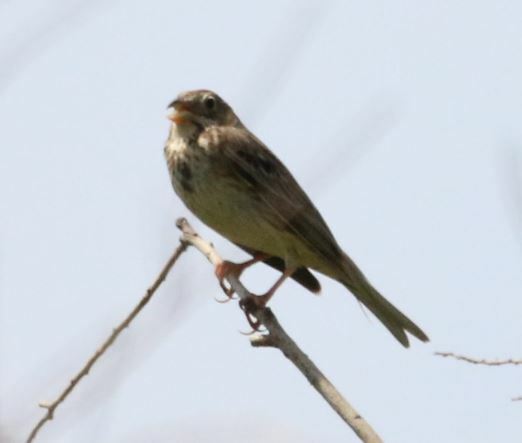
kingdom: Animalia
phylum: Chordata
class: Aves
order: Passeriformes
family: Emberizidae
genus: Emberiza
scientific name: Emberiza calandra
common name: Corn bunting
